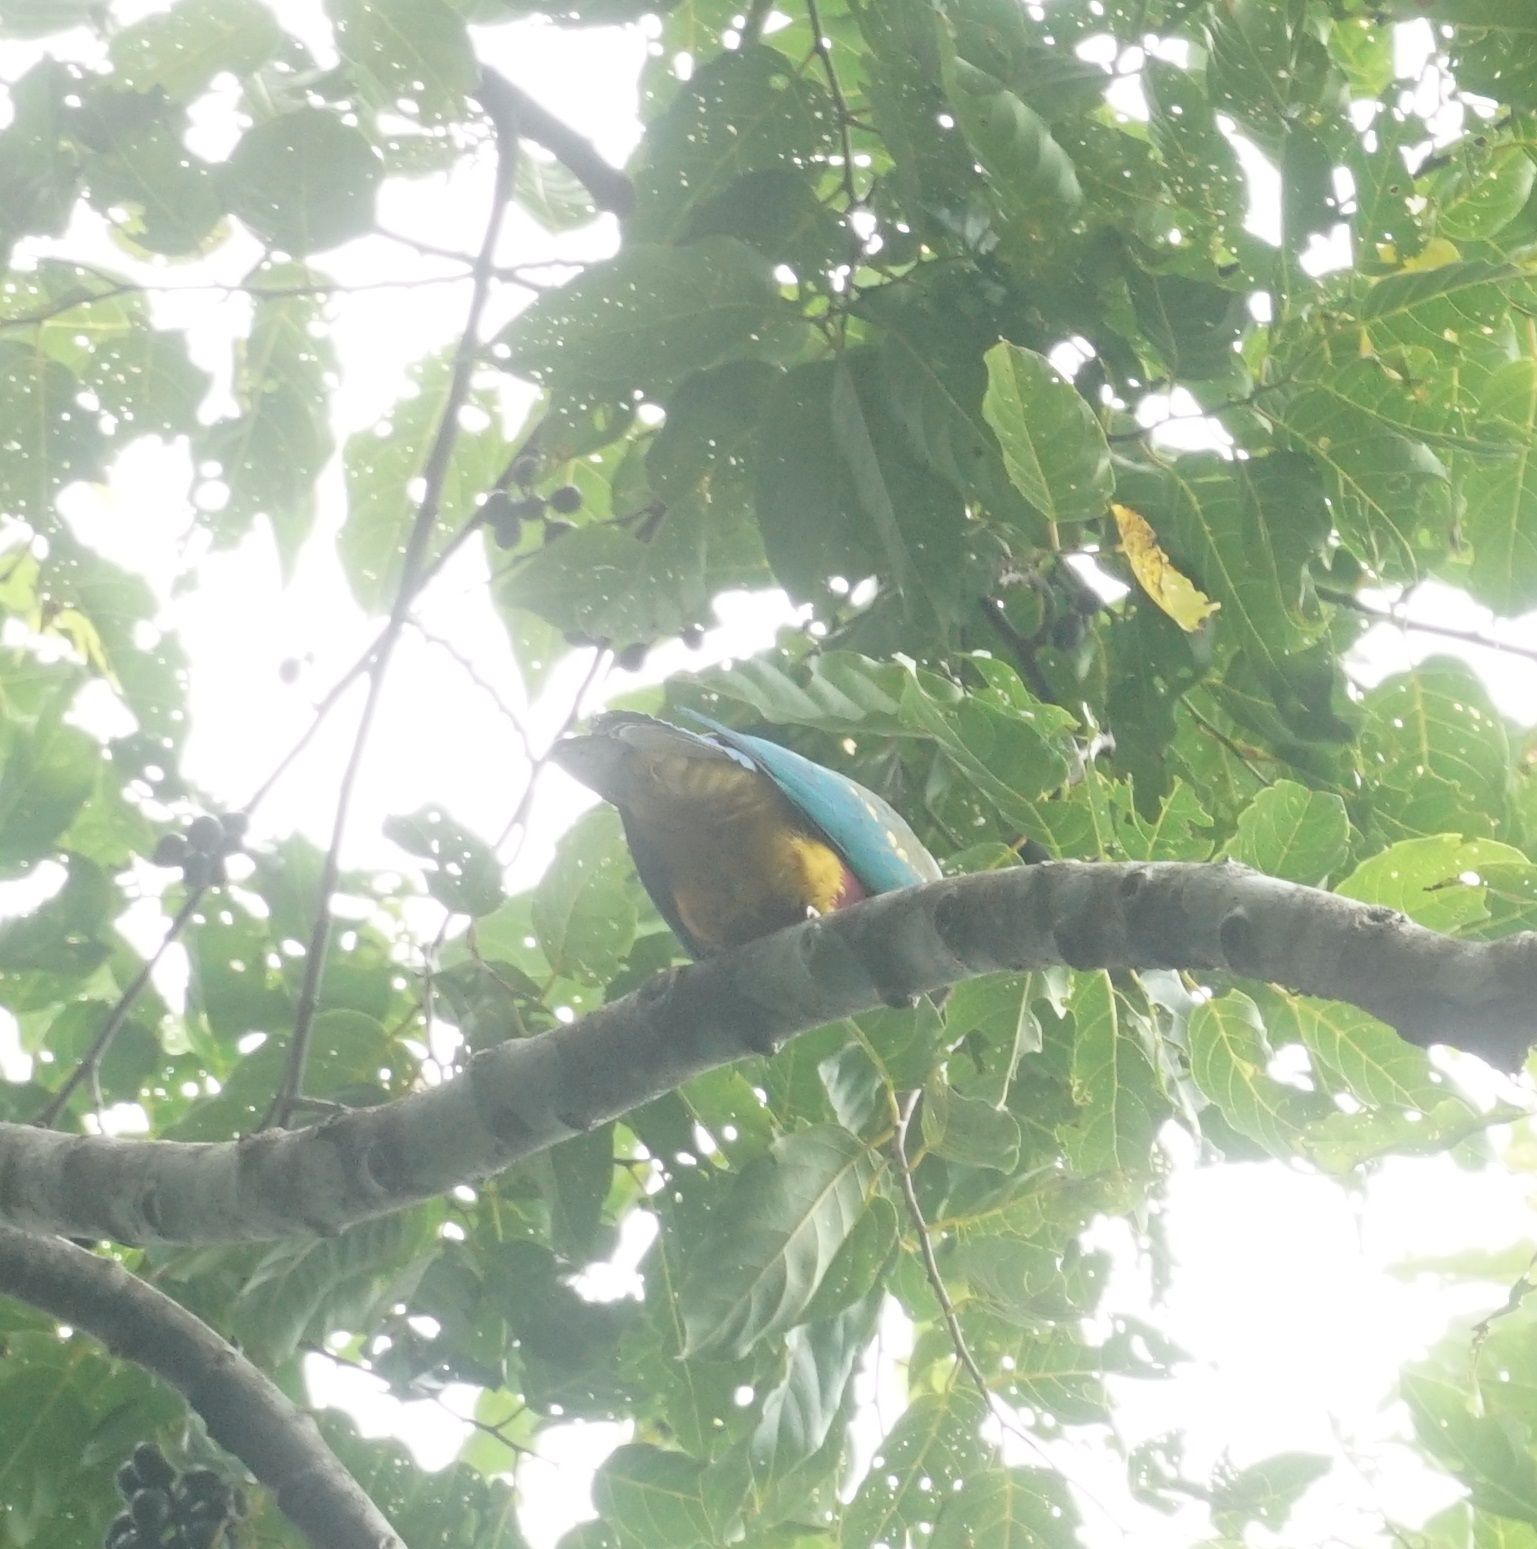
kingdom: Animalia
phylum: Chordata
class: Aves
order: Columbiformes
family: Columbidae
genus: Ptilinopus
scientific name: Ptilinopus magnificus
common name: Wompoo fruit dove
